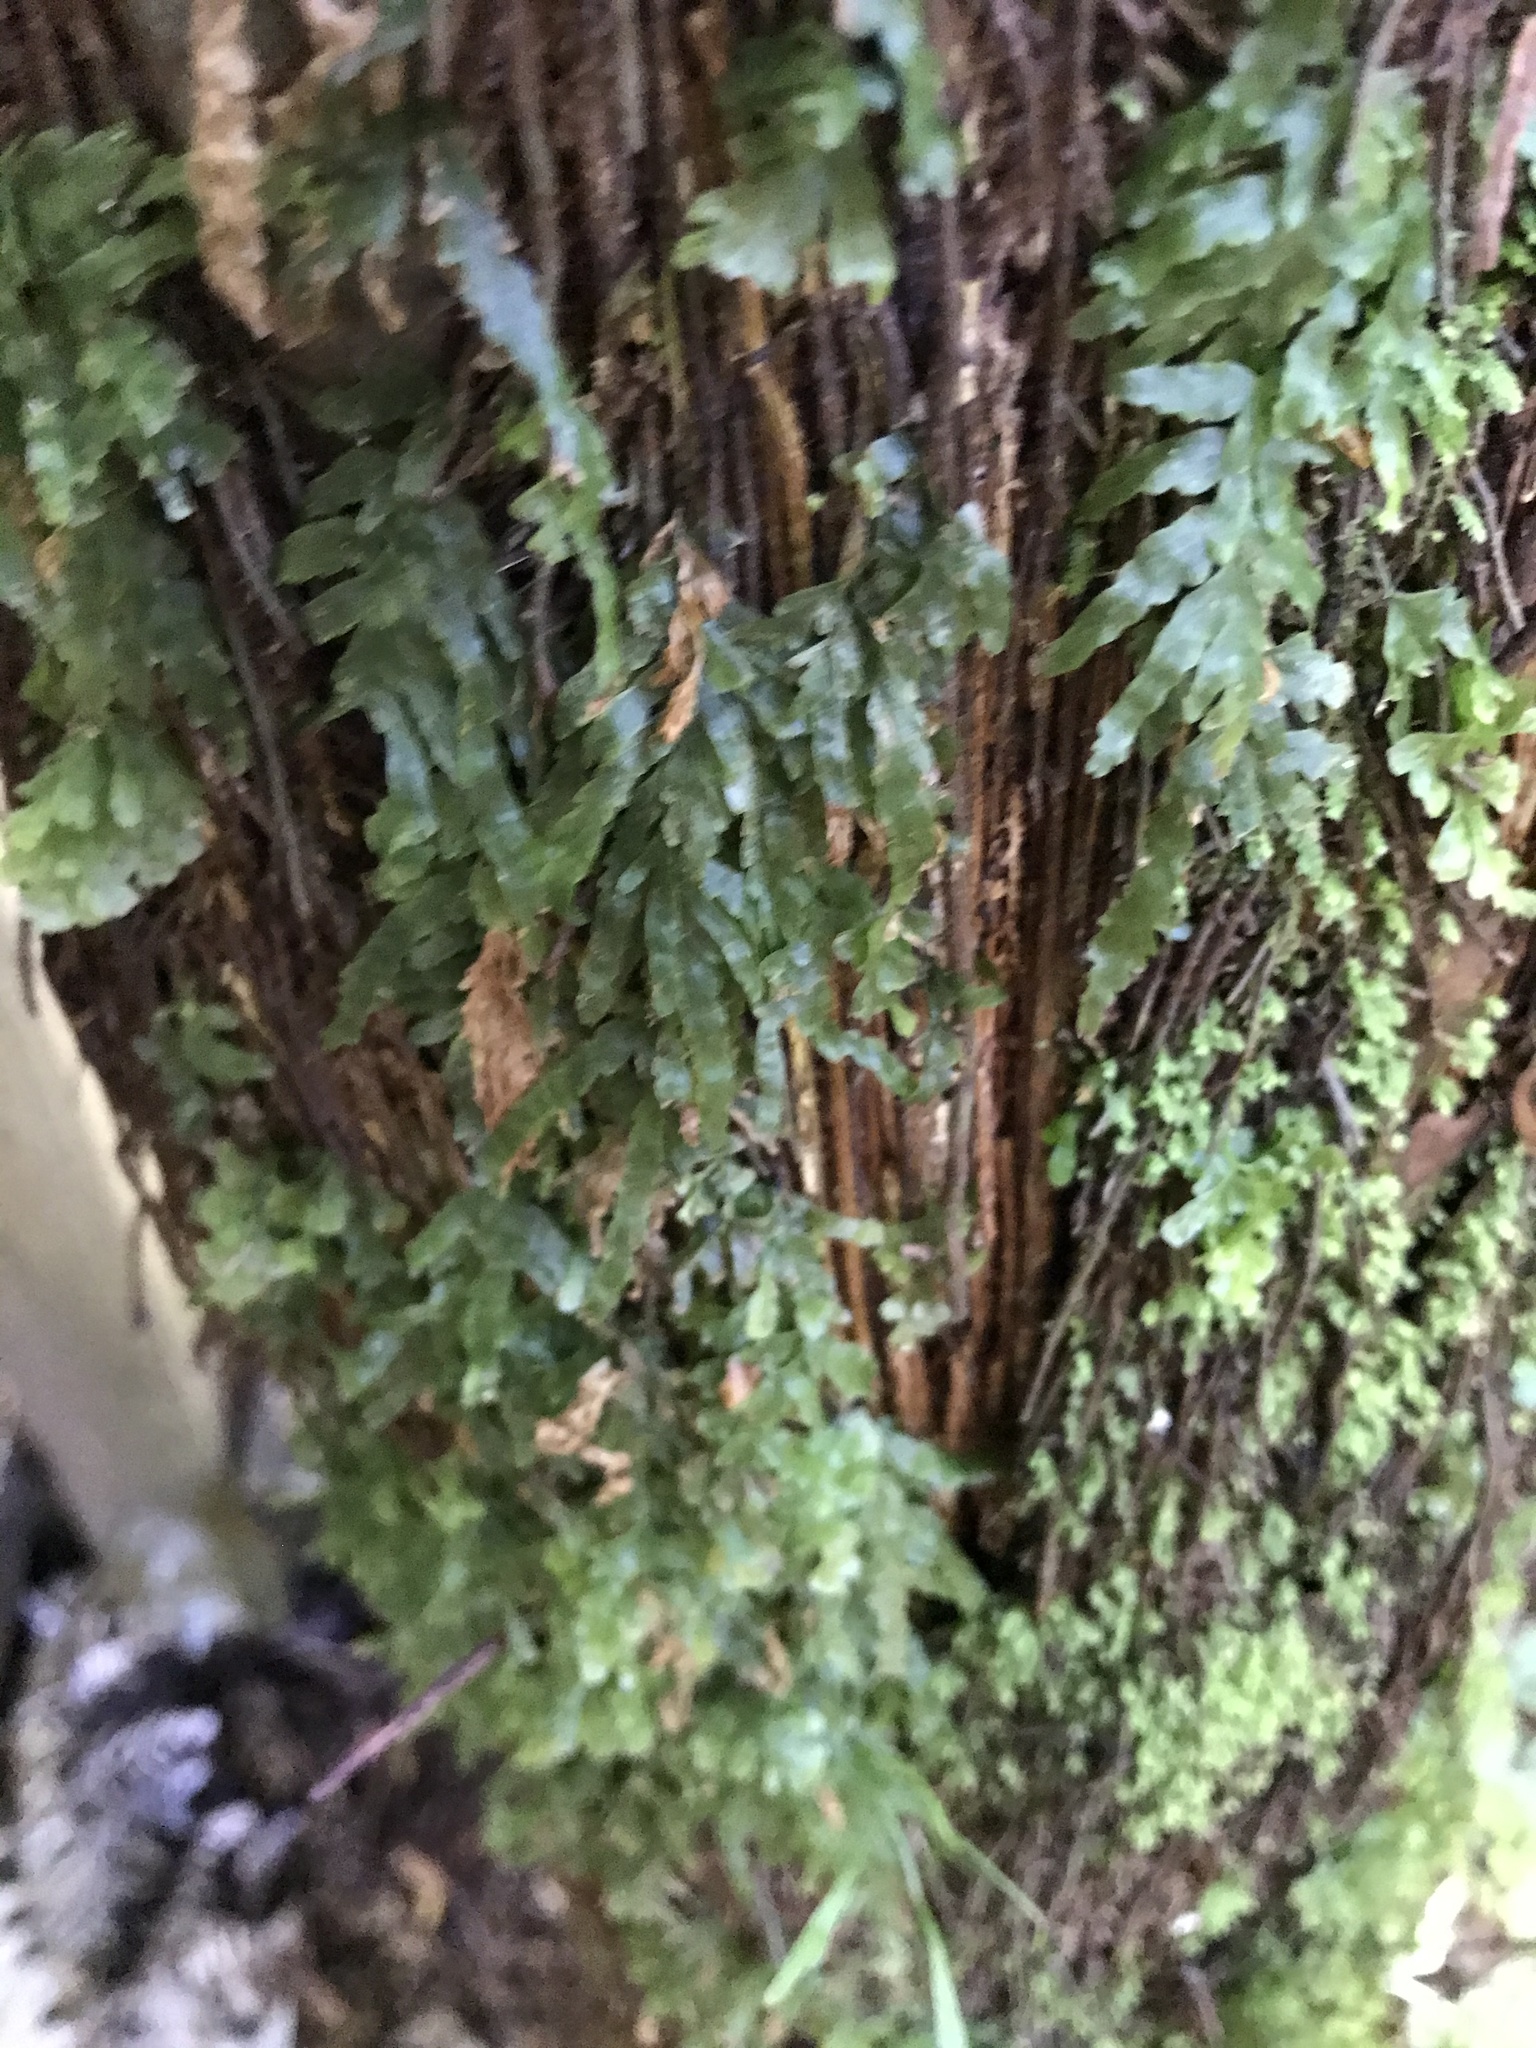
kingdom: Plantae
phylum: Tracheophyta
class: Polypodiopsida
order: Hymenophyllales
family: Hymenophyllaceae
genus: Polyphlebium
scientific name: Polyphlebium venosum
